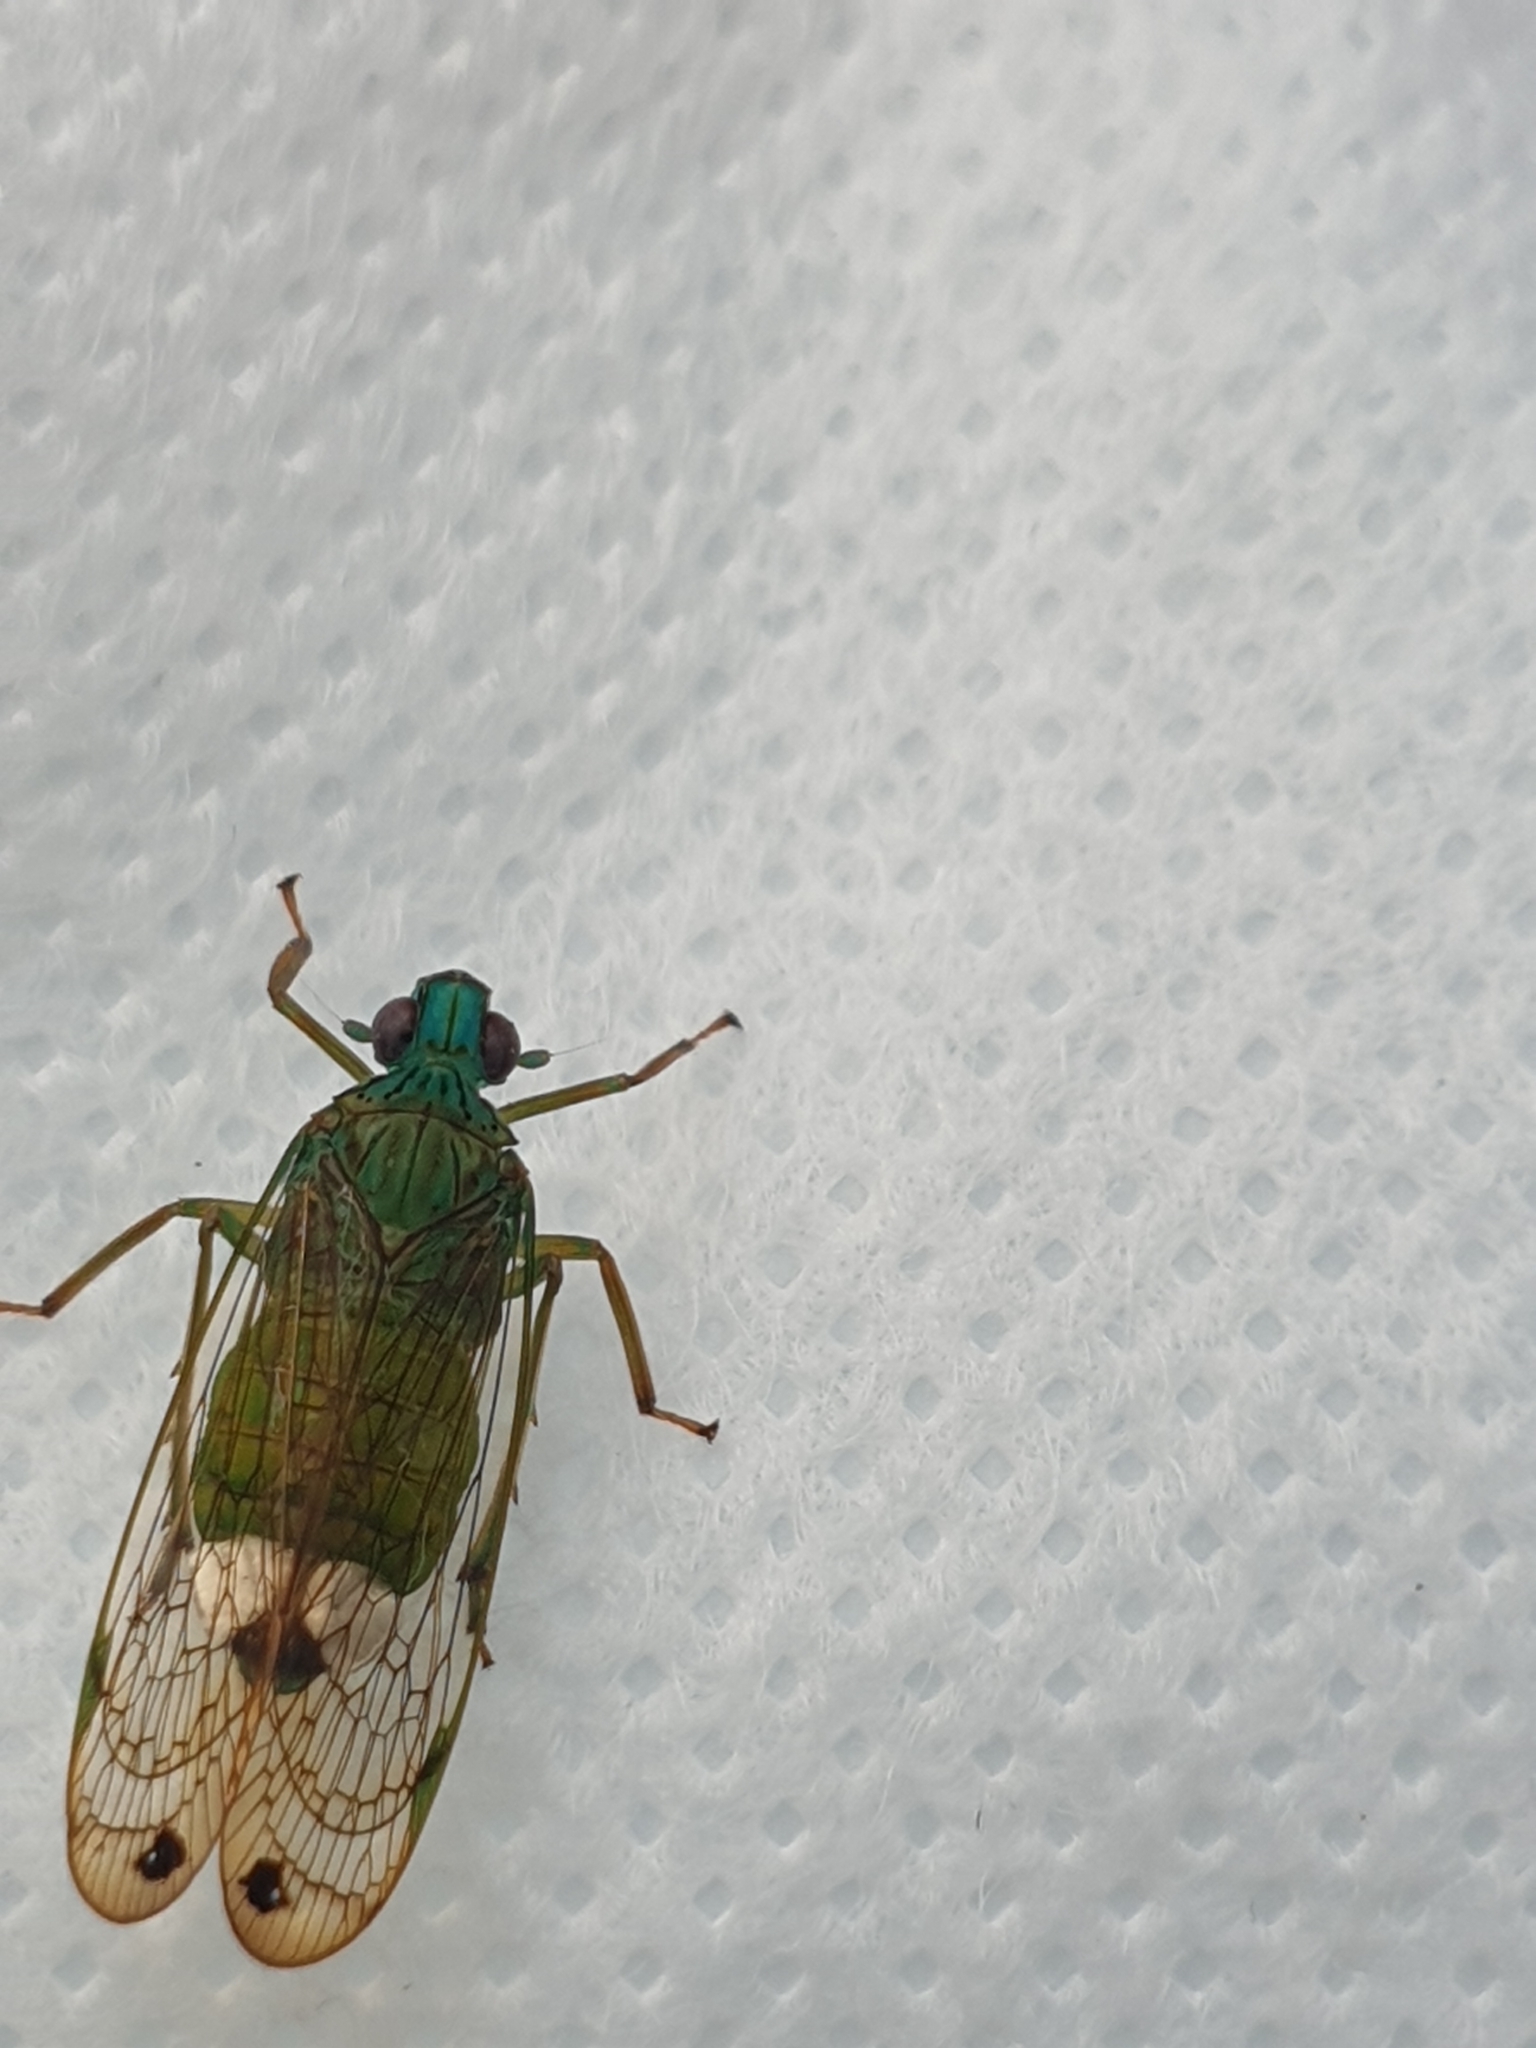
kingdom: Animalia
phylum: Arthropoda
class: Insecta
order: Hemiptera
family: Lophopidae
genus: Magia
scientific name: Magia subocellata
